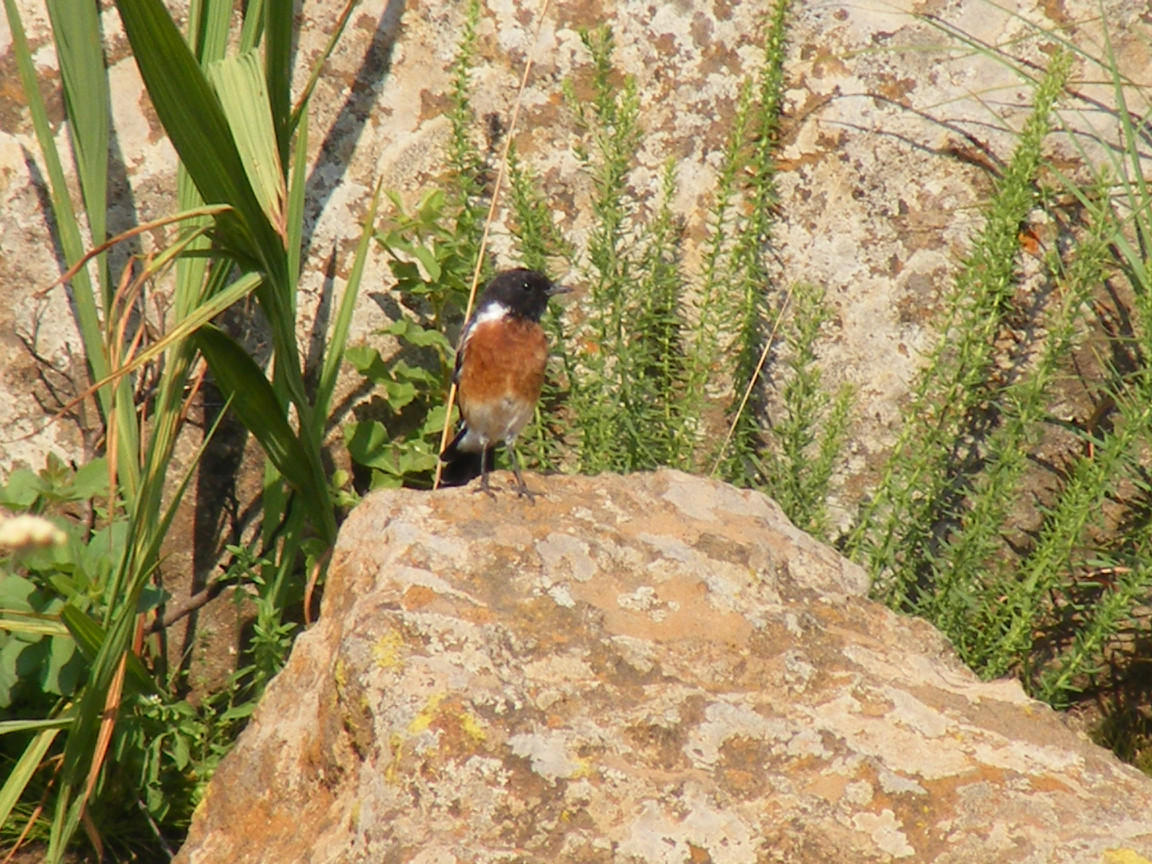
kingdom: Animalia
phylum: Chordata
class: Aves
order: Passeriformes
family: Muscicapidae
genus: Saxicola
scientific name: Saxicola torquatus
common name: African stonechat
